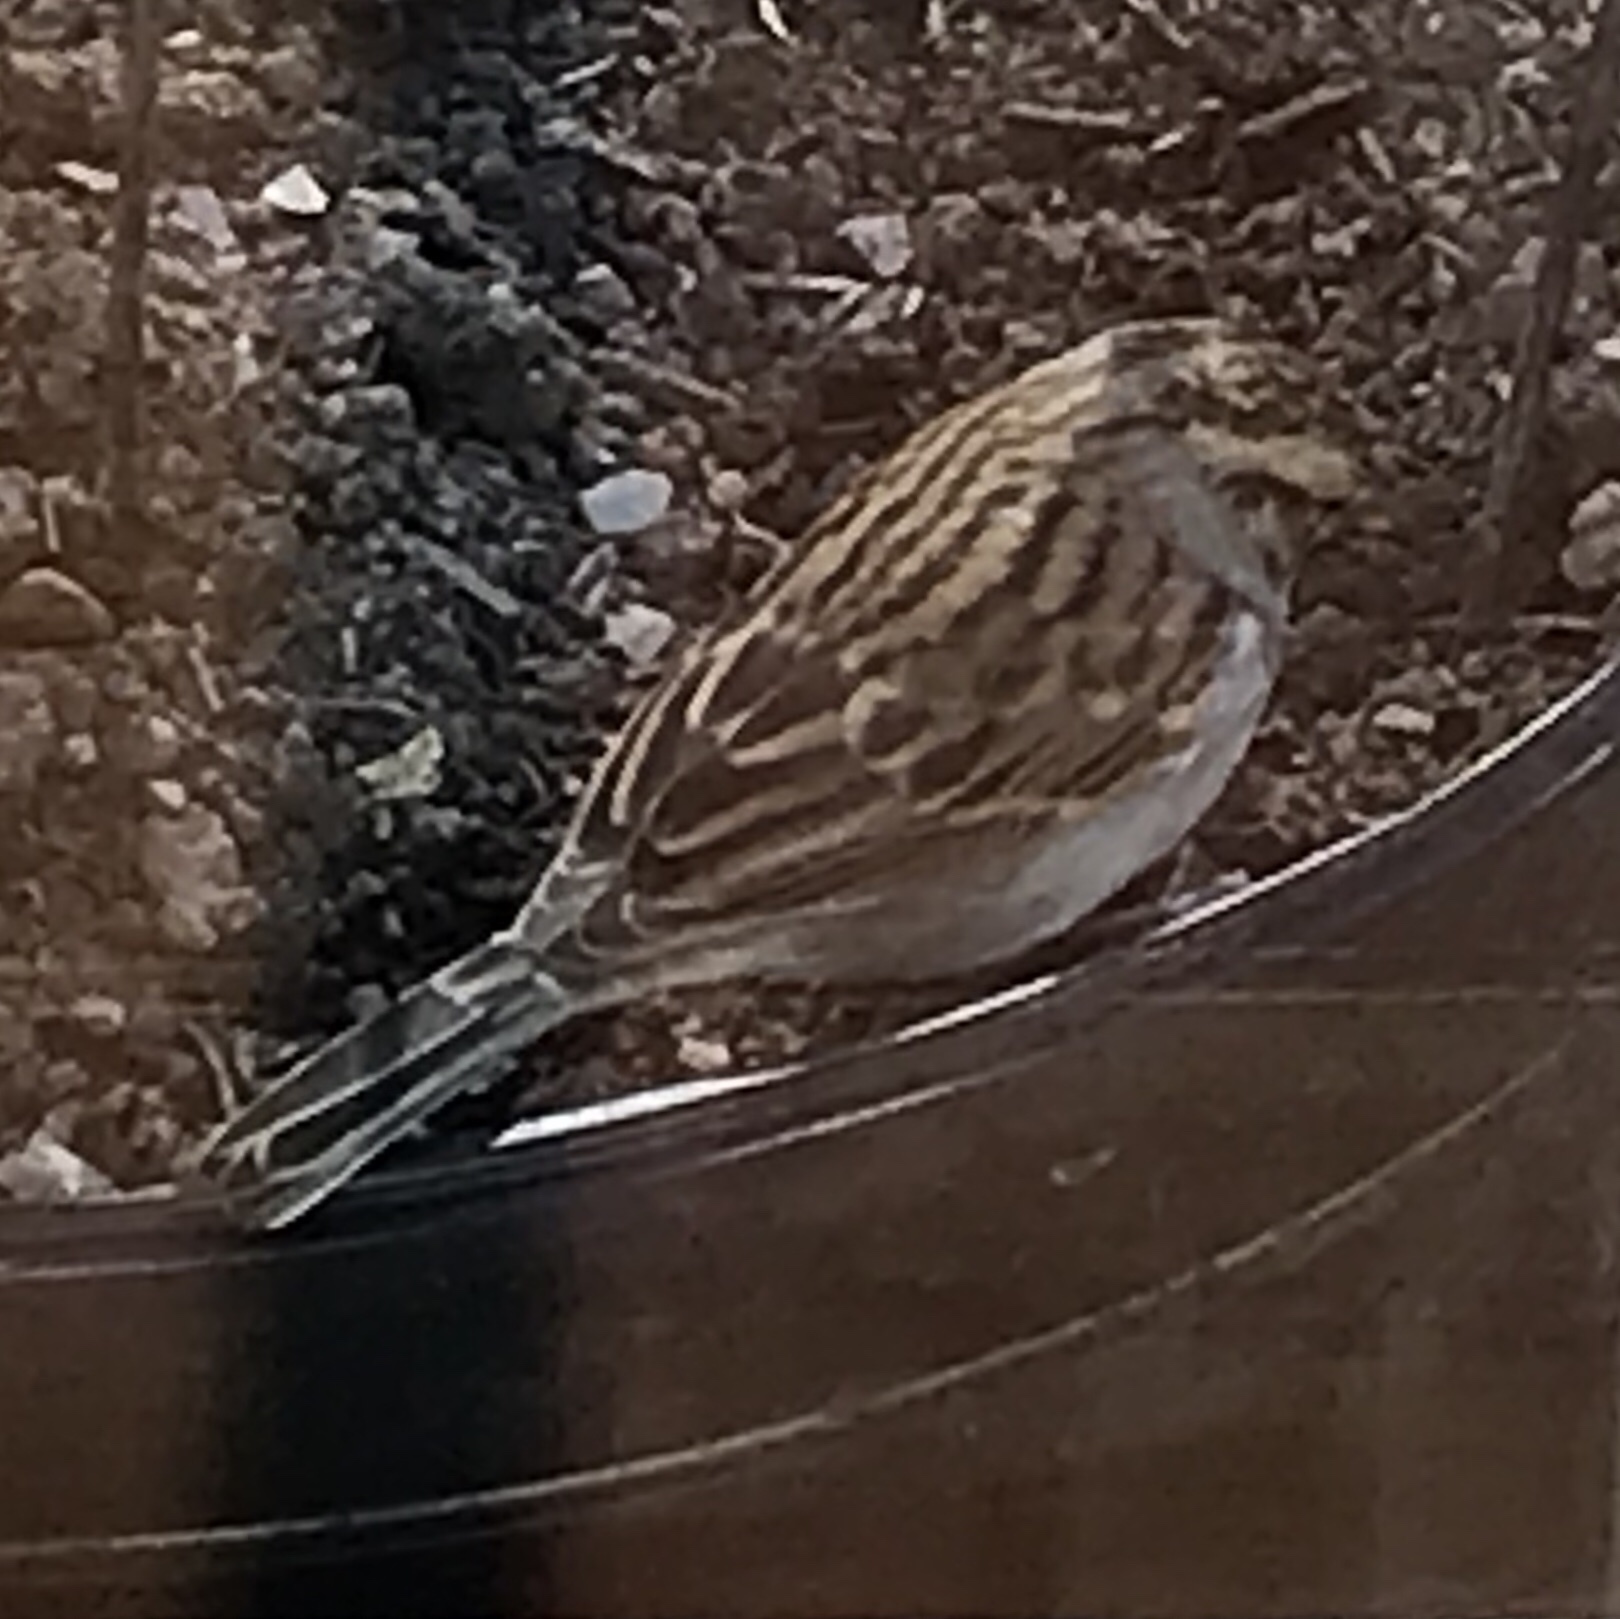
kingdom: Animalia
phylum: Chordata
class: Aves
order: Passeriformes
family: Passerellidae
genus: Spizella
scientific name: Spizella passerina
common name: Chipping sparrow
